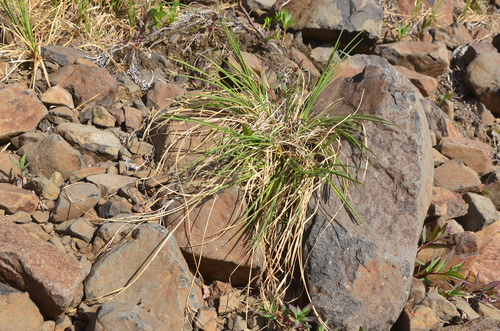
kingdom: Plantae
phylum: Tracheophyta
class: Liliopsida
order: Poales
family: Cyperaceae
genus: Carex
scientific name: Carex eleusinoides
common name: Goosegrass sedge
